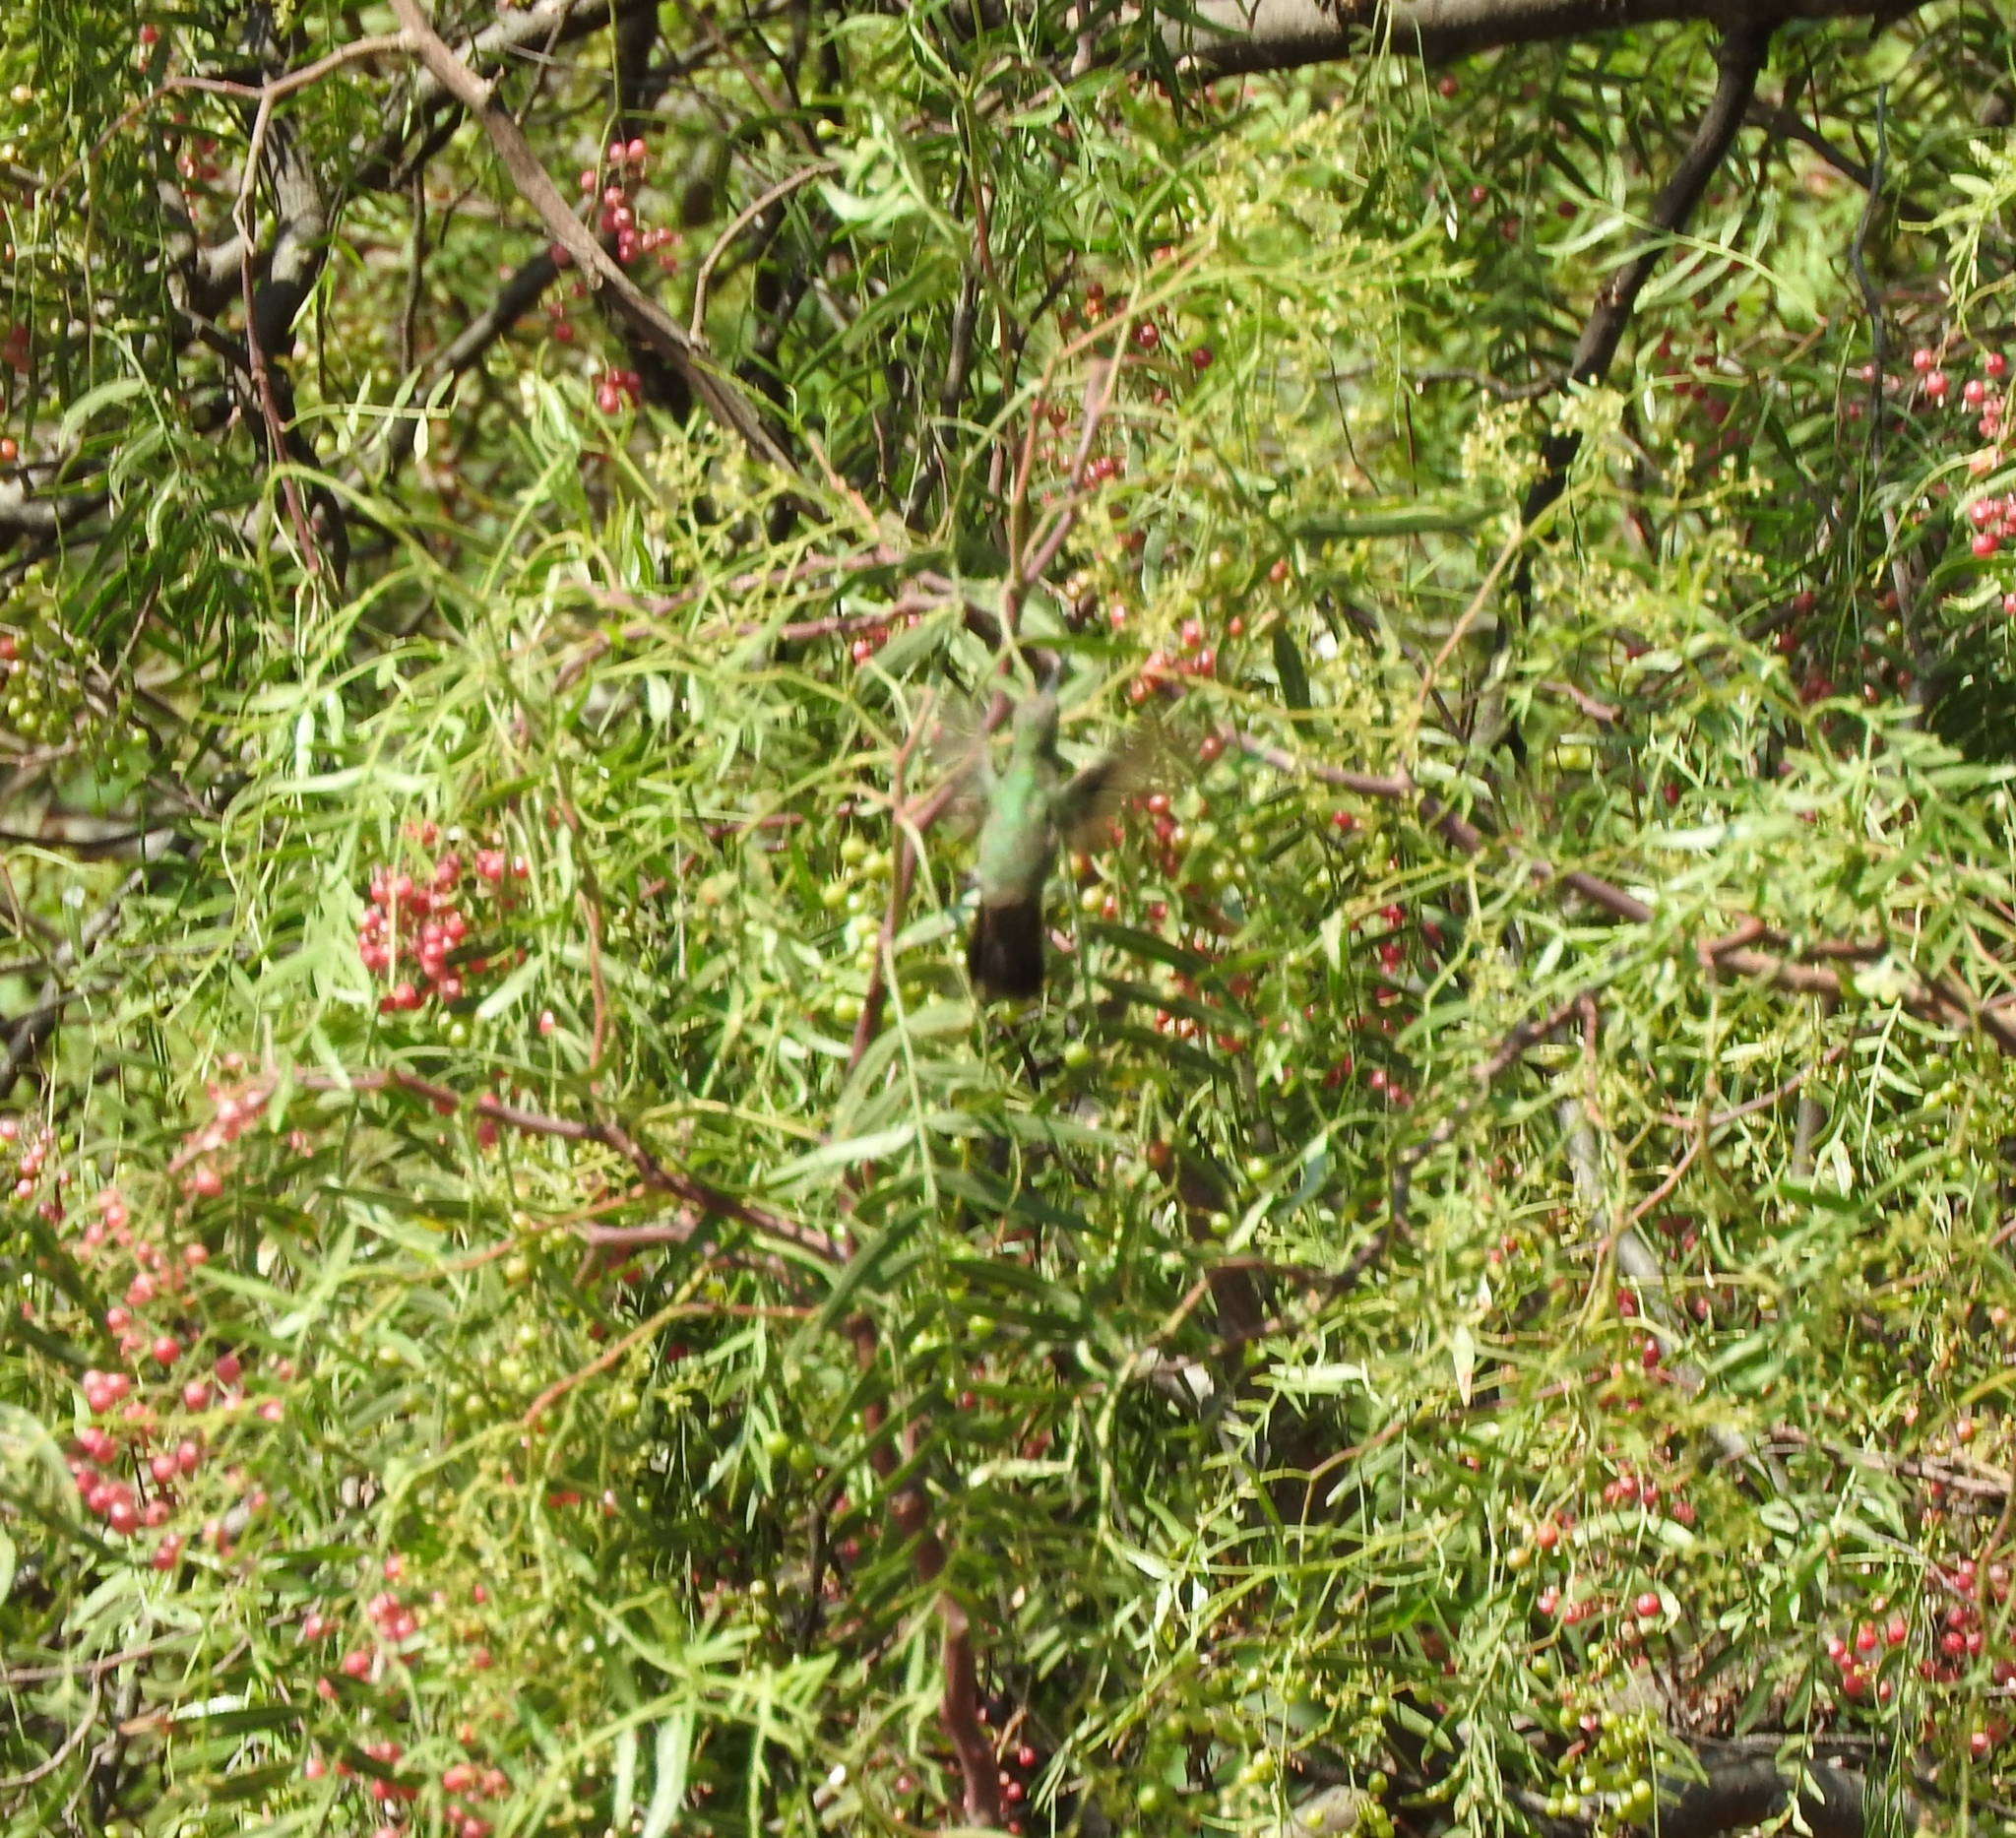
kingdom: Animalia
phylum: Chordata
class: Aves
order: Apodiformes
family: Trochilidae
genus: Cynanthus
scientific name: Cynanthus latirostris
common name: Broad-billed hummingbird
